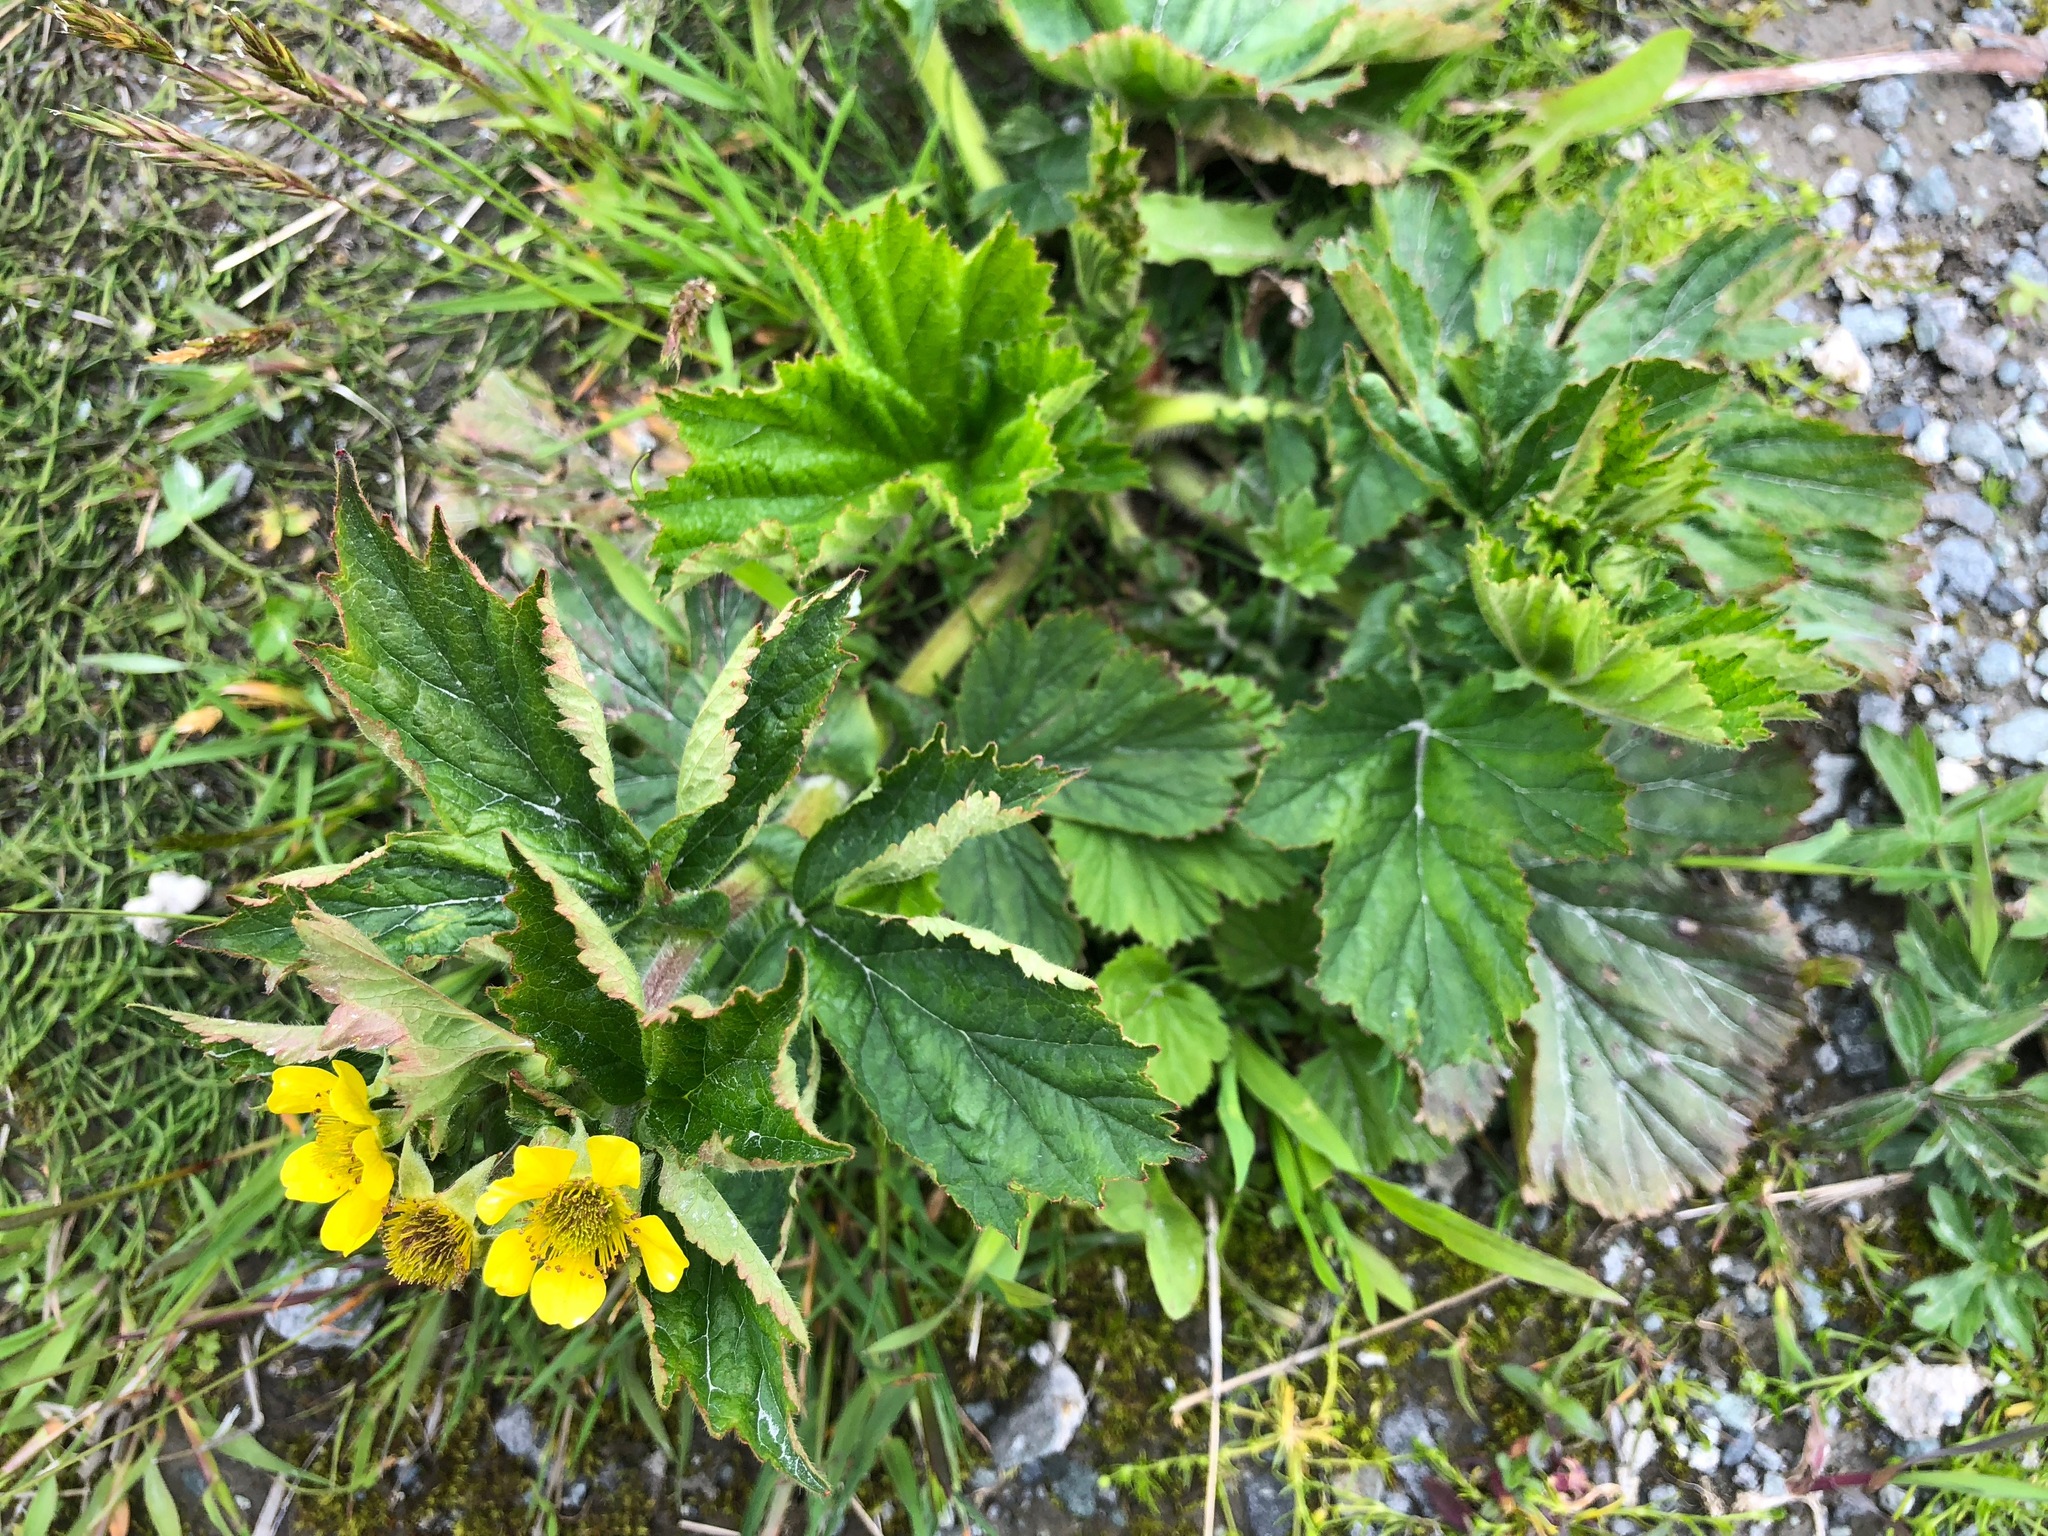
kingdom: Plantae
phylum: Tracheophyta
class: Magnoliopsida
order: Rosales
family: Rosaceae
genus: Geum
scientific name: Geum macrophyllum
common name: Large-leaved avens
